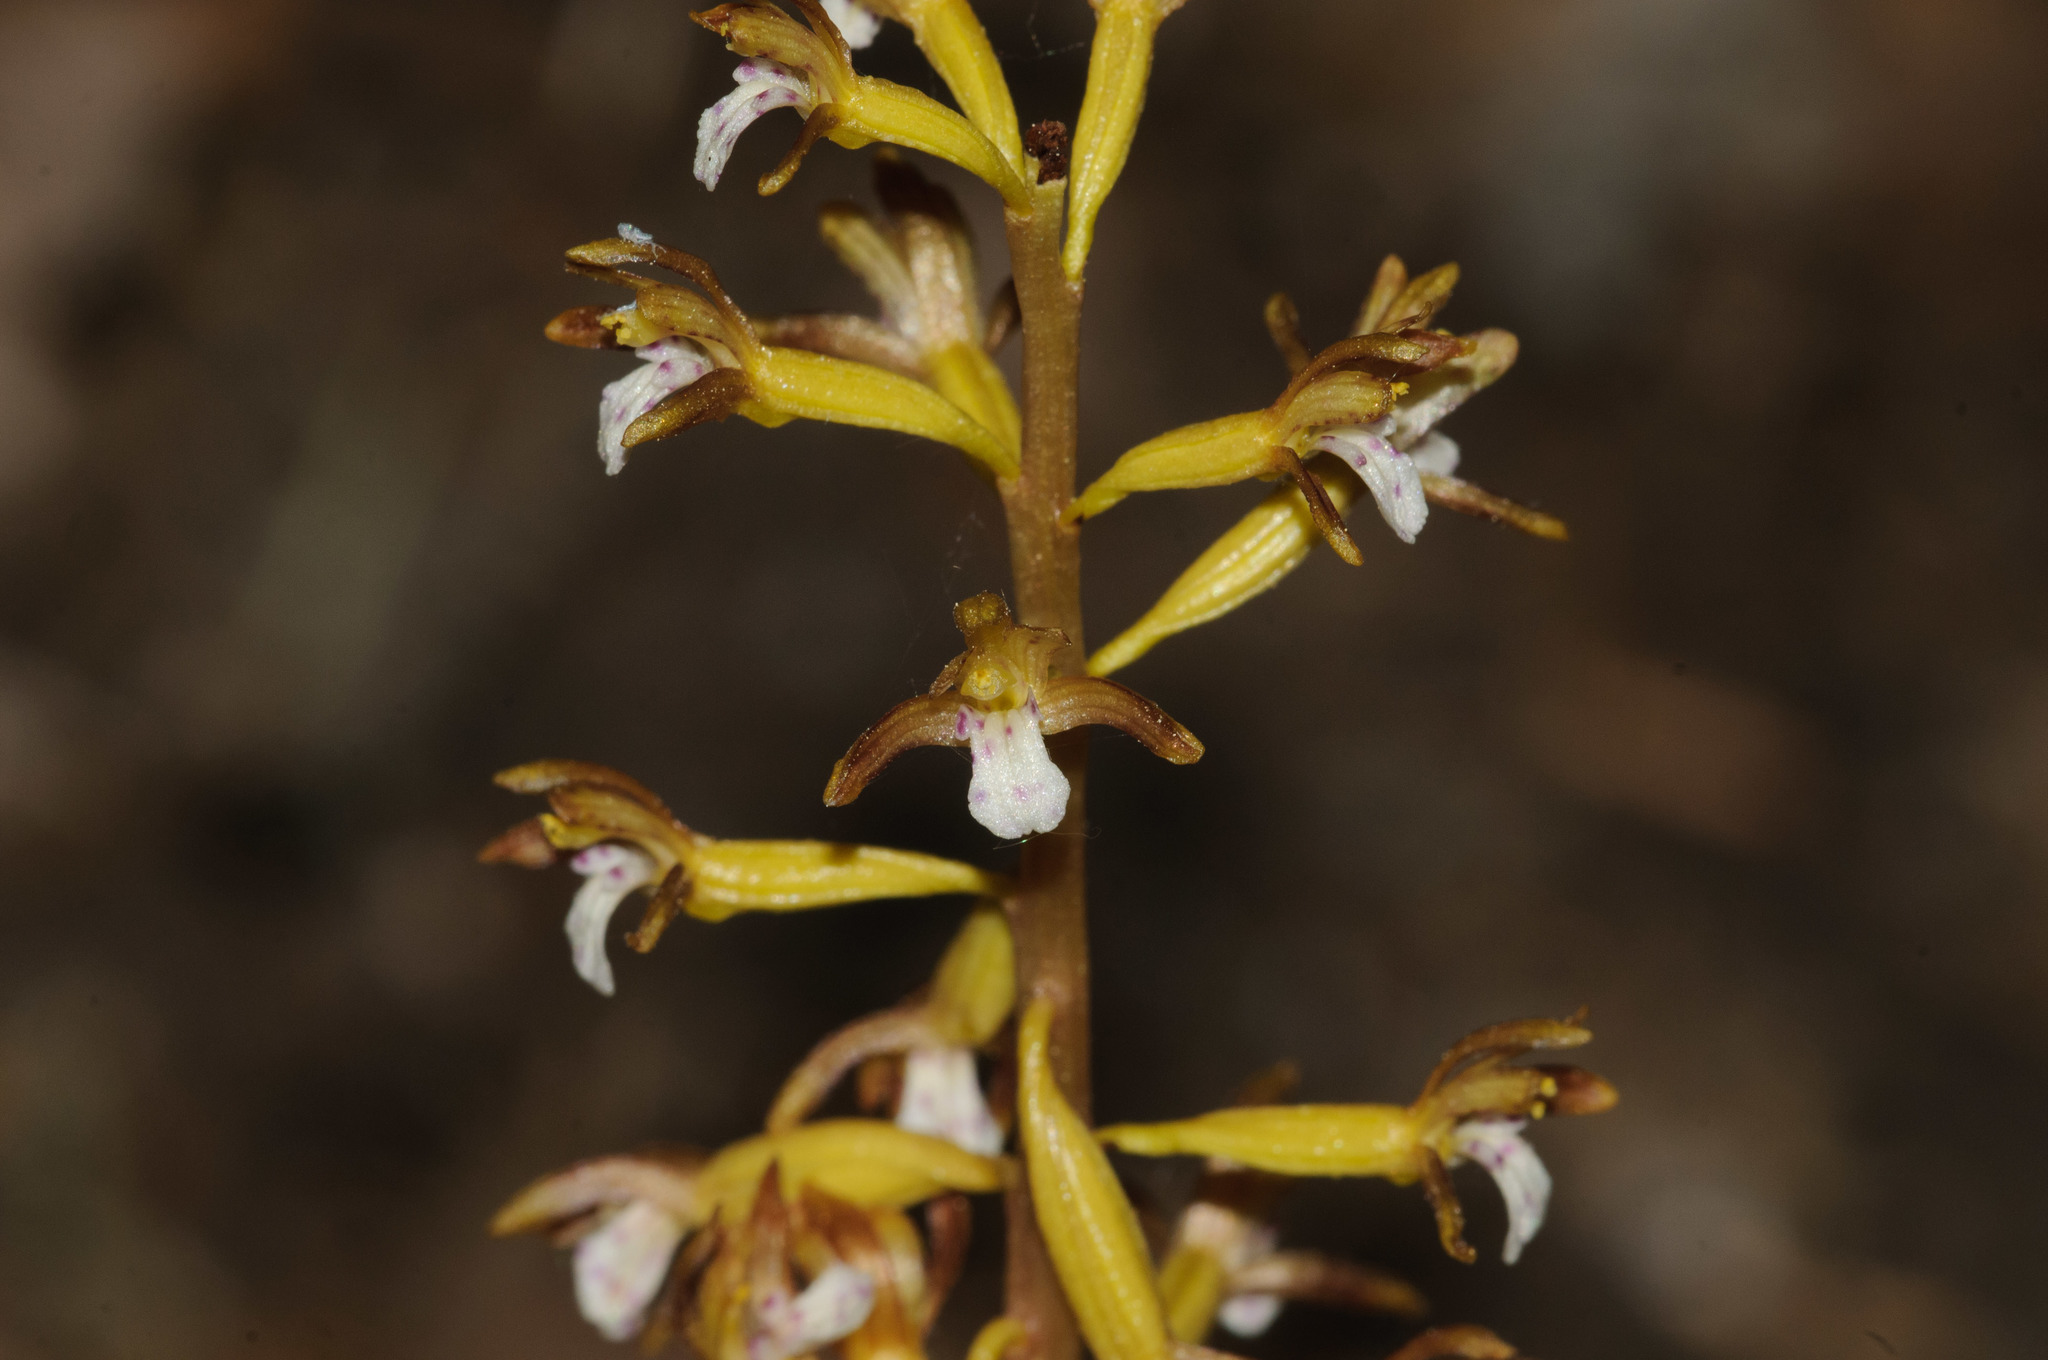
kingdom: Plantae
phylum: Tracheophyta
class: Liliopsida
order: Asparagales
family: Orchidaceae
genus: Corallorhiza
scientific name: Corallorhiza maculata
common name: Spotted coralroot
